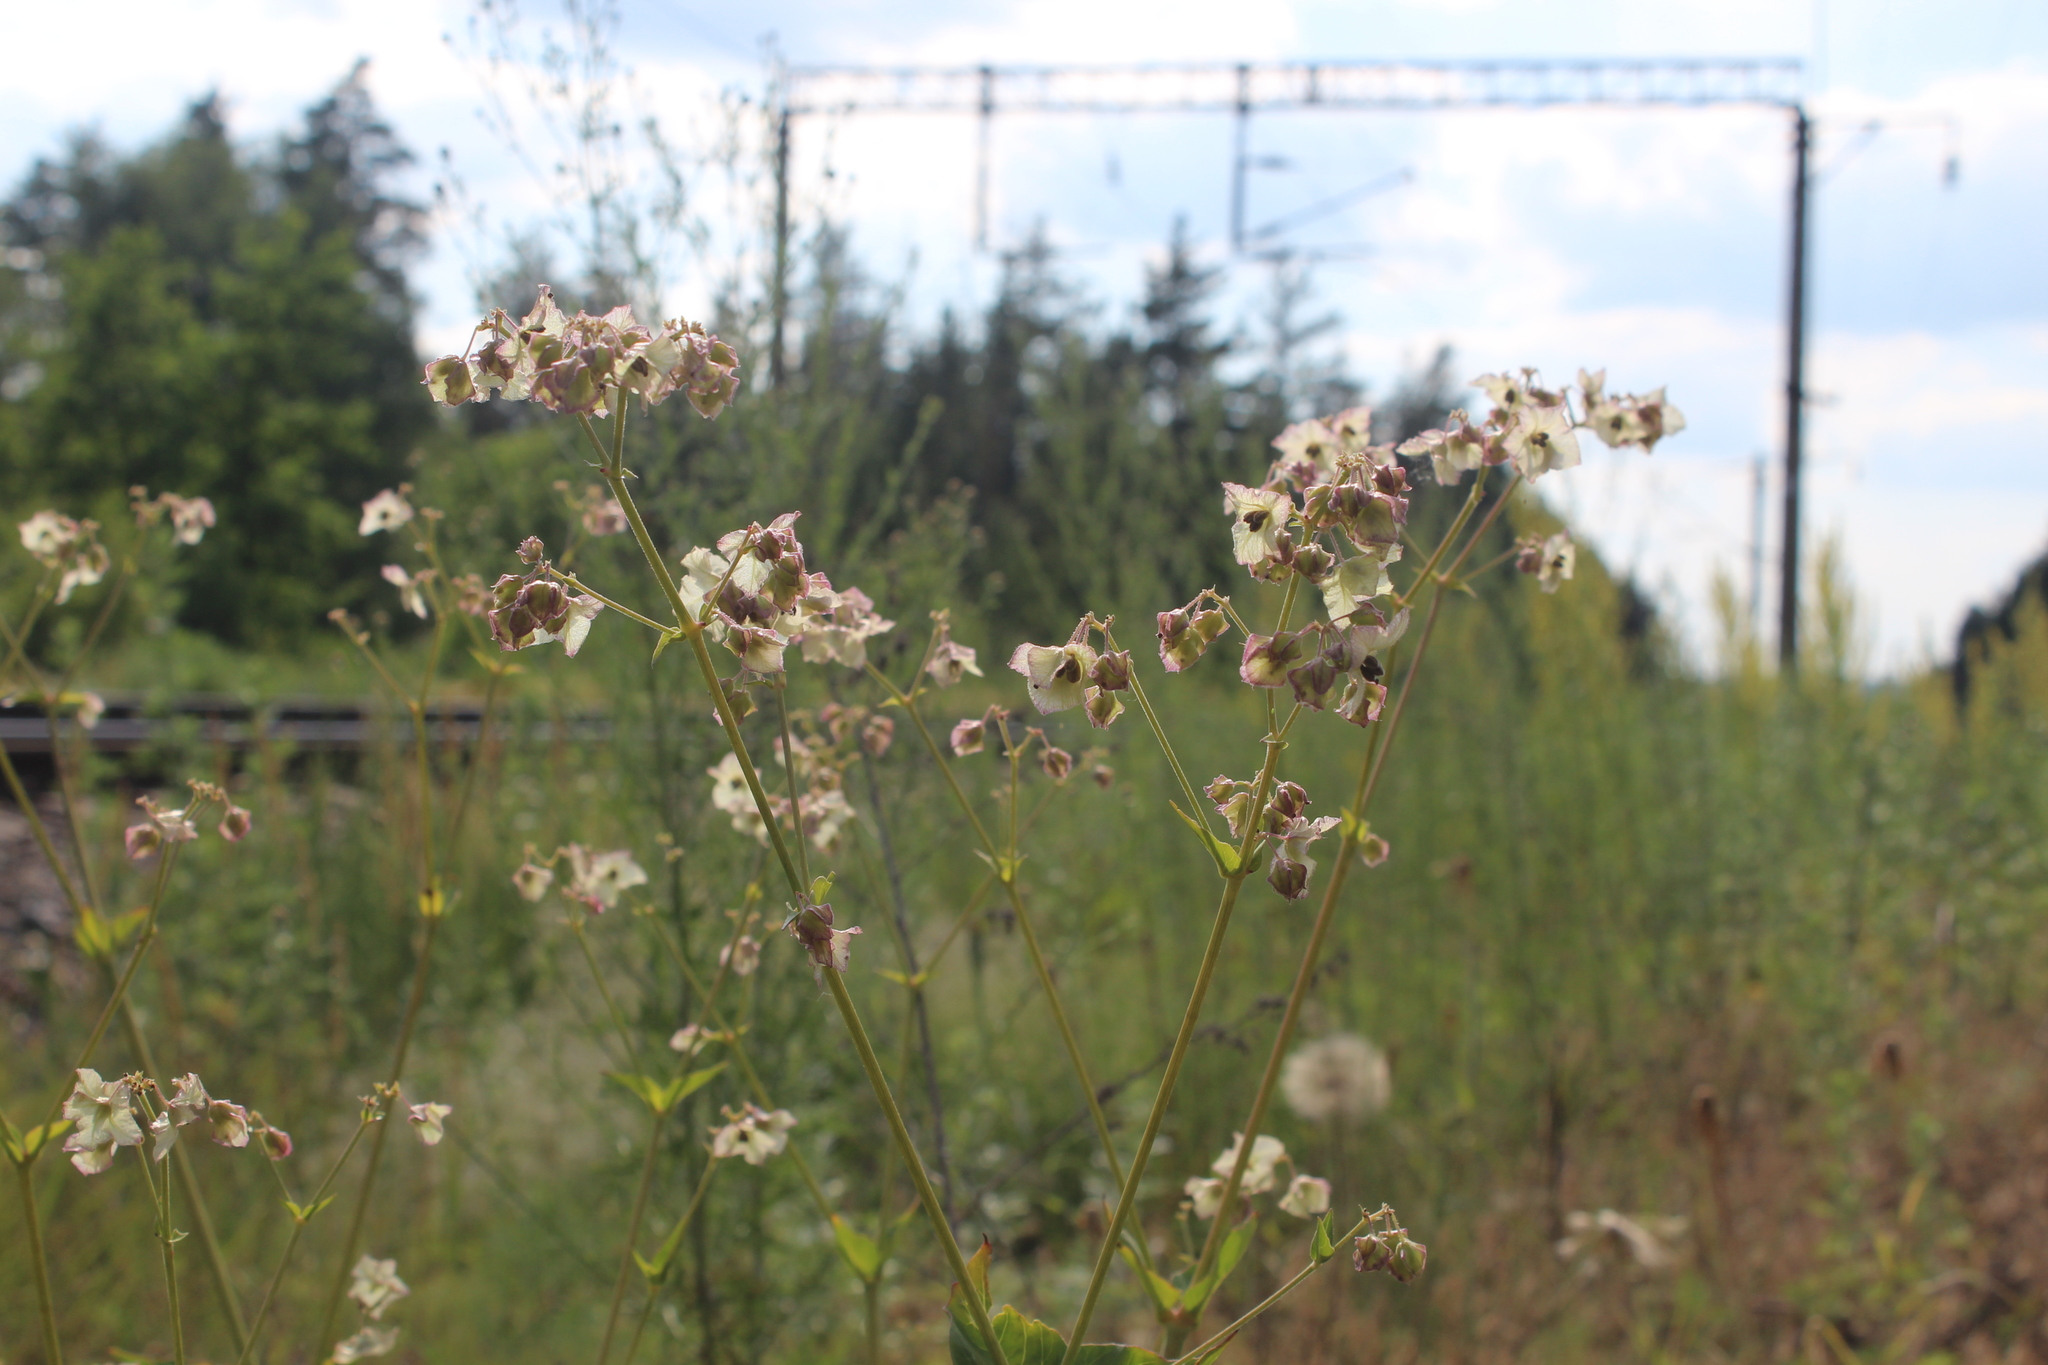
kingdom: Plantae
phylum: Tracheophyta
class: Magnoliopsida
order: Caryophyllales
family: Nyctaginaceae
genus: Mirabilis
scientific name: Mirabilis nyctaginea
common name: Umbrella wort
